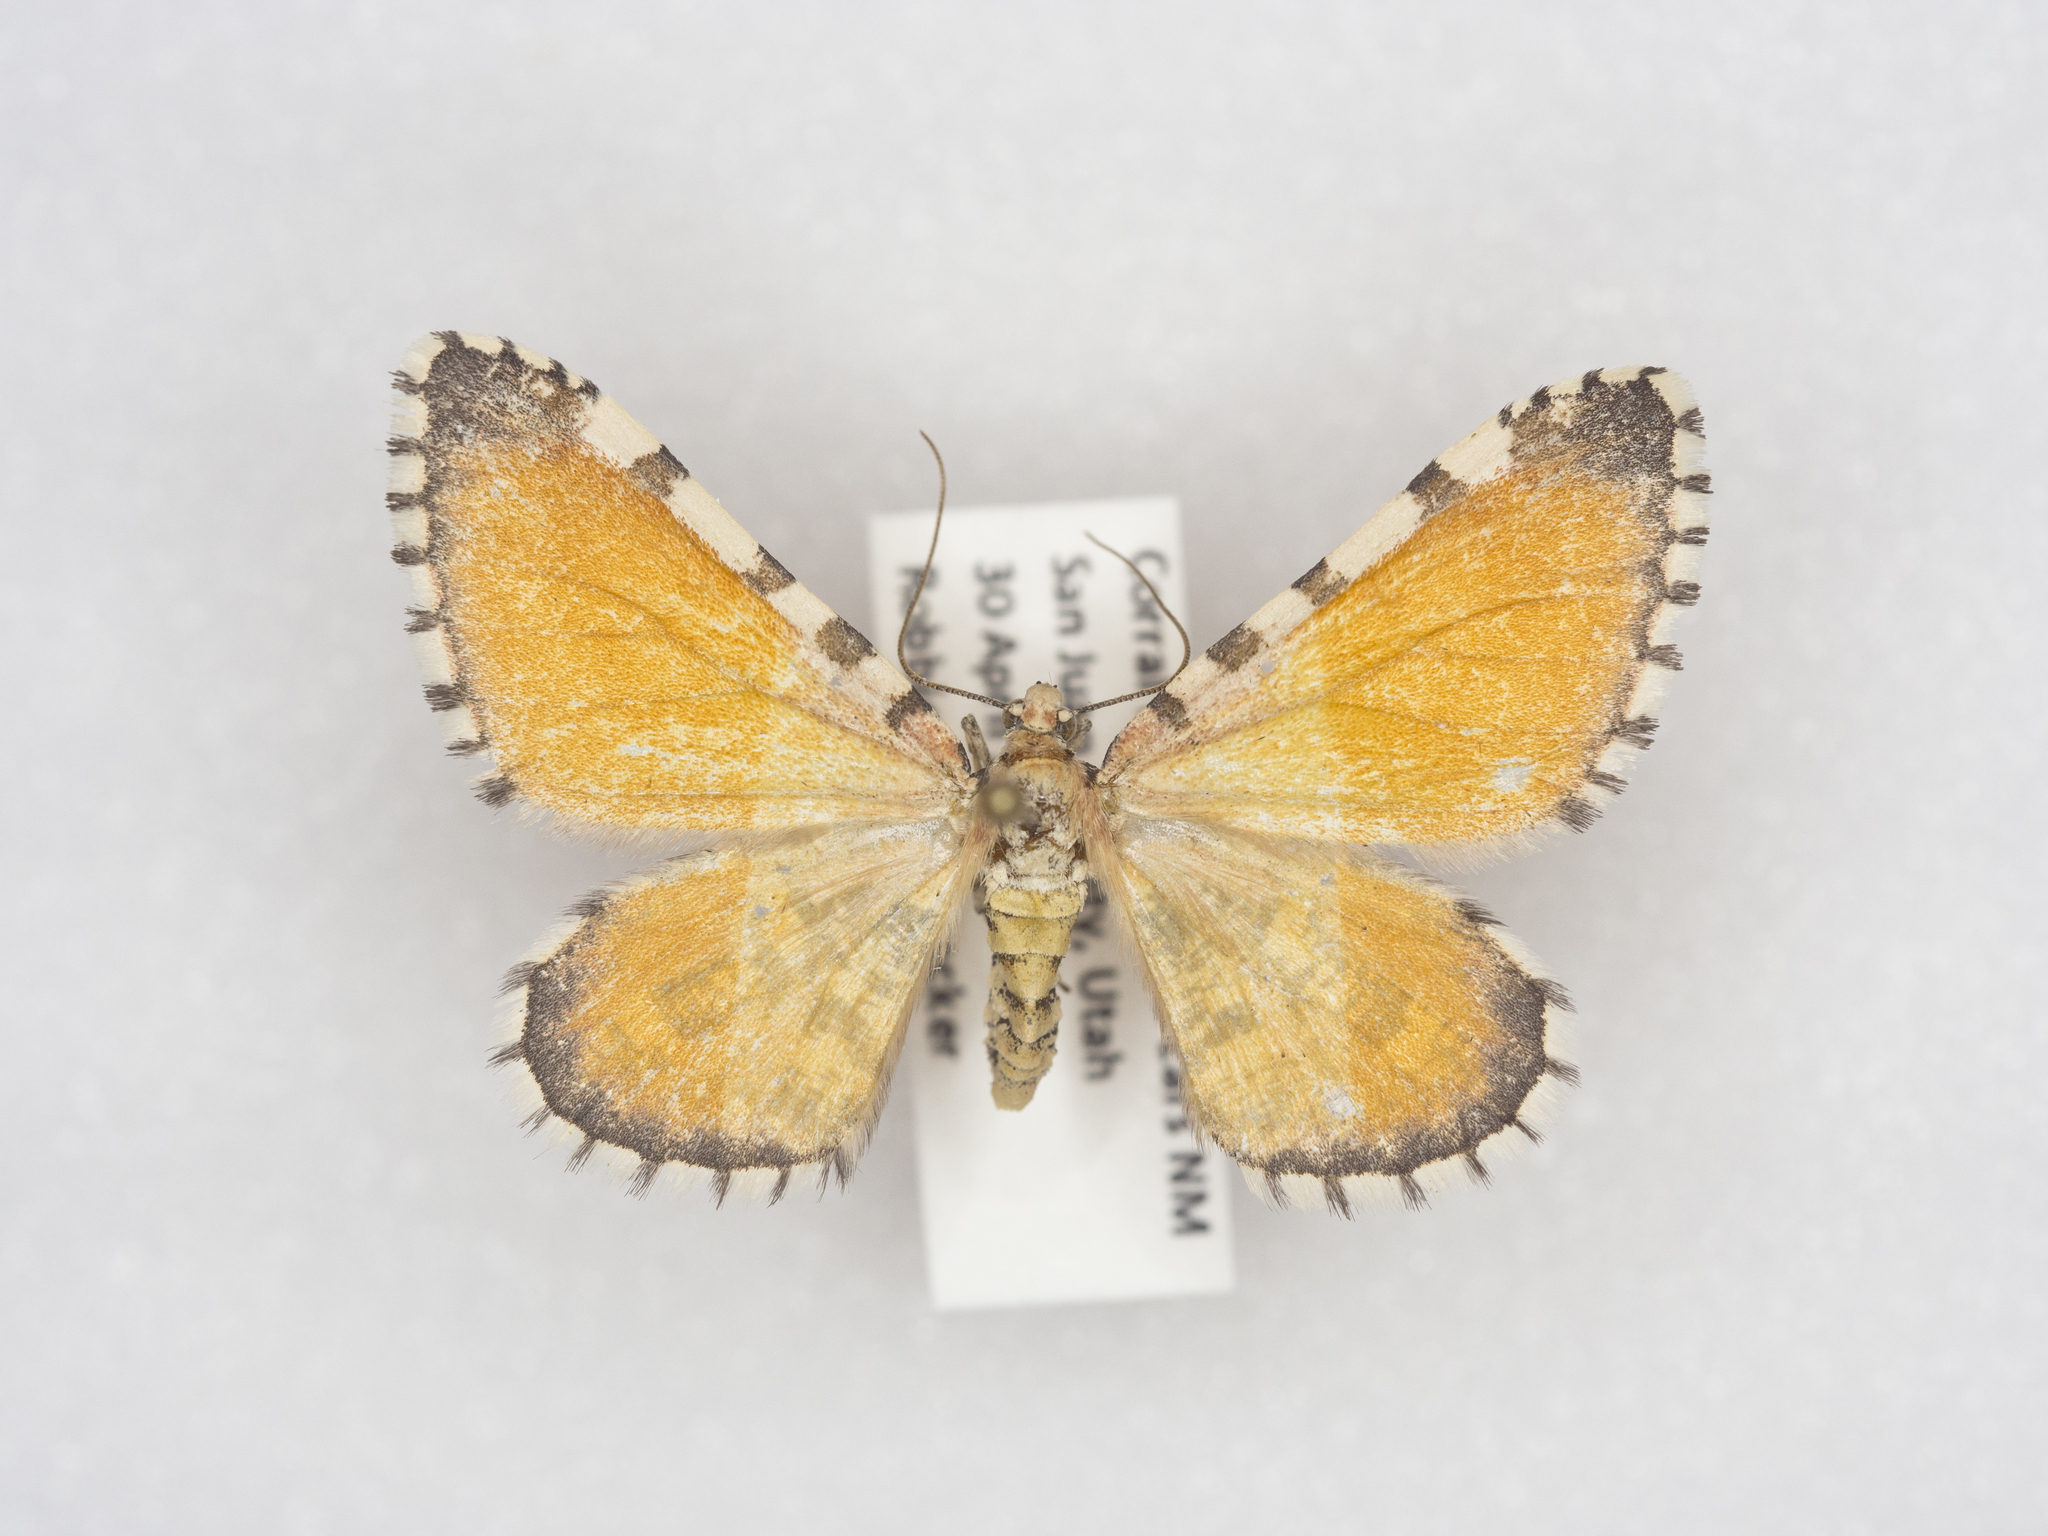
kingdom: Animalia
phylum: Arthropoda
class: Insecta
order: Lepidoptera
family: Geometridae
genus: Stamnodes
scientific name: Stamnodes tessellata
